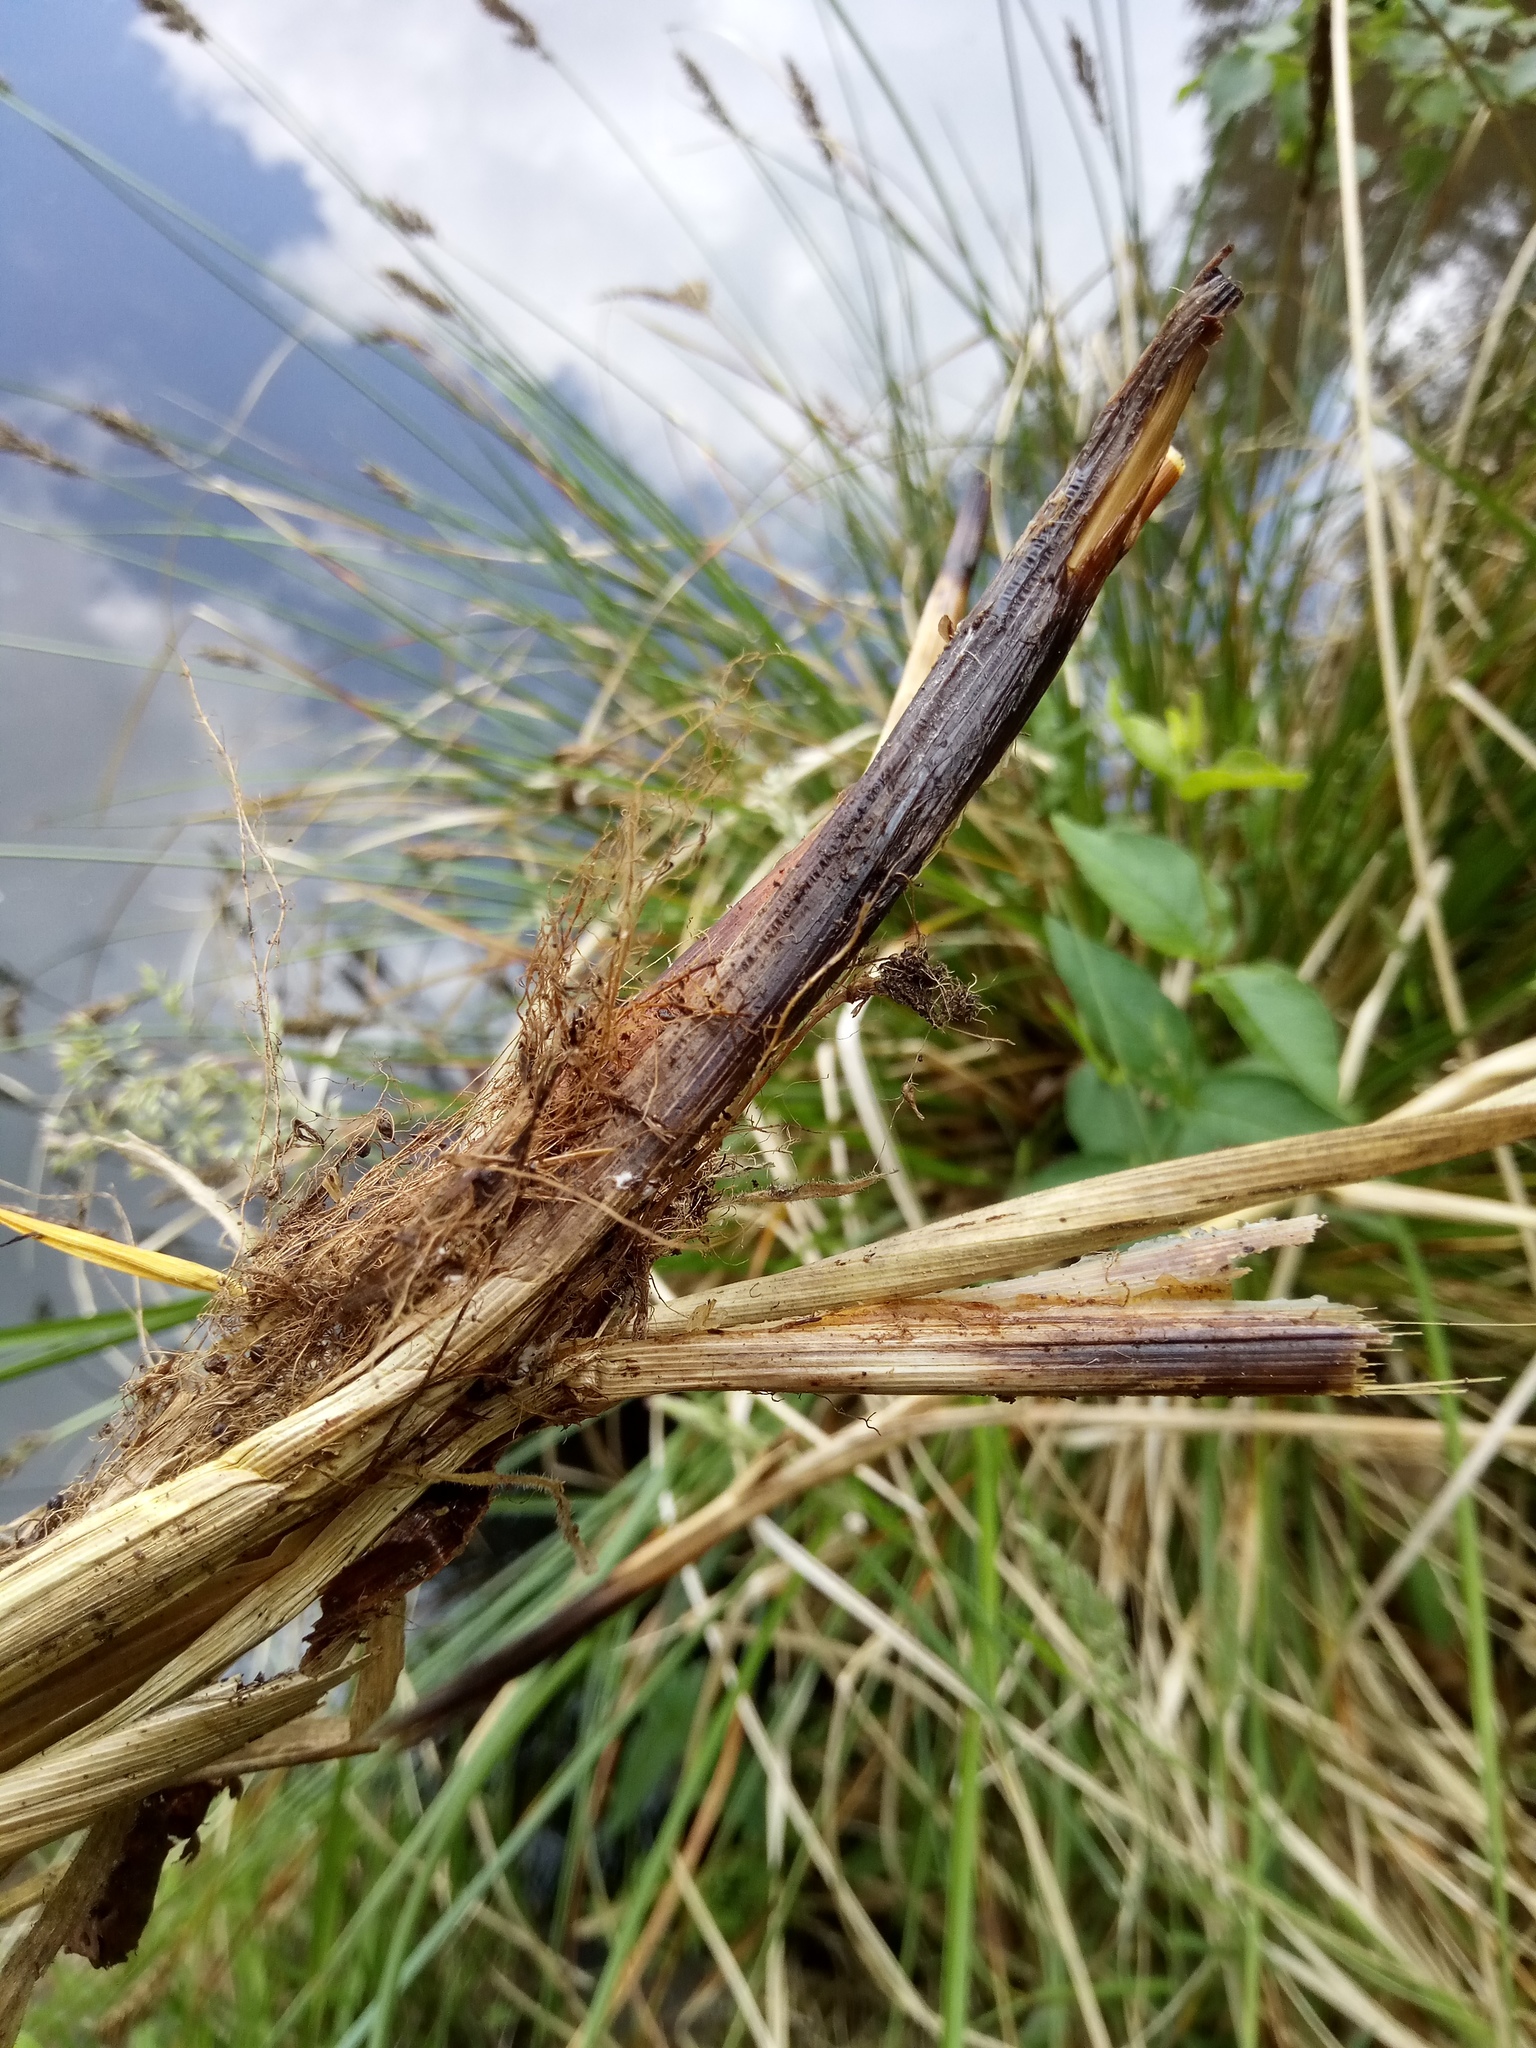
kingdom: Plantae
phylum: Tracheophyta
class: Liliopsida
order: Poales
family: Cyperaceae
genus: Carex
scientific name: Carex paniculata
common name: Greater tussock-sedge
